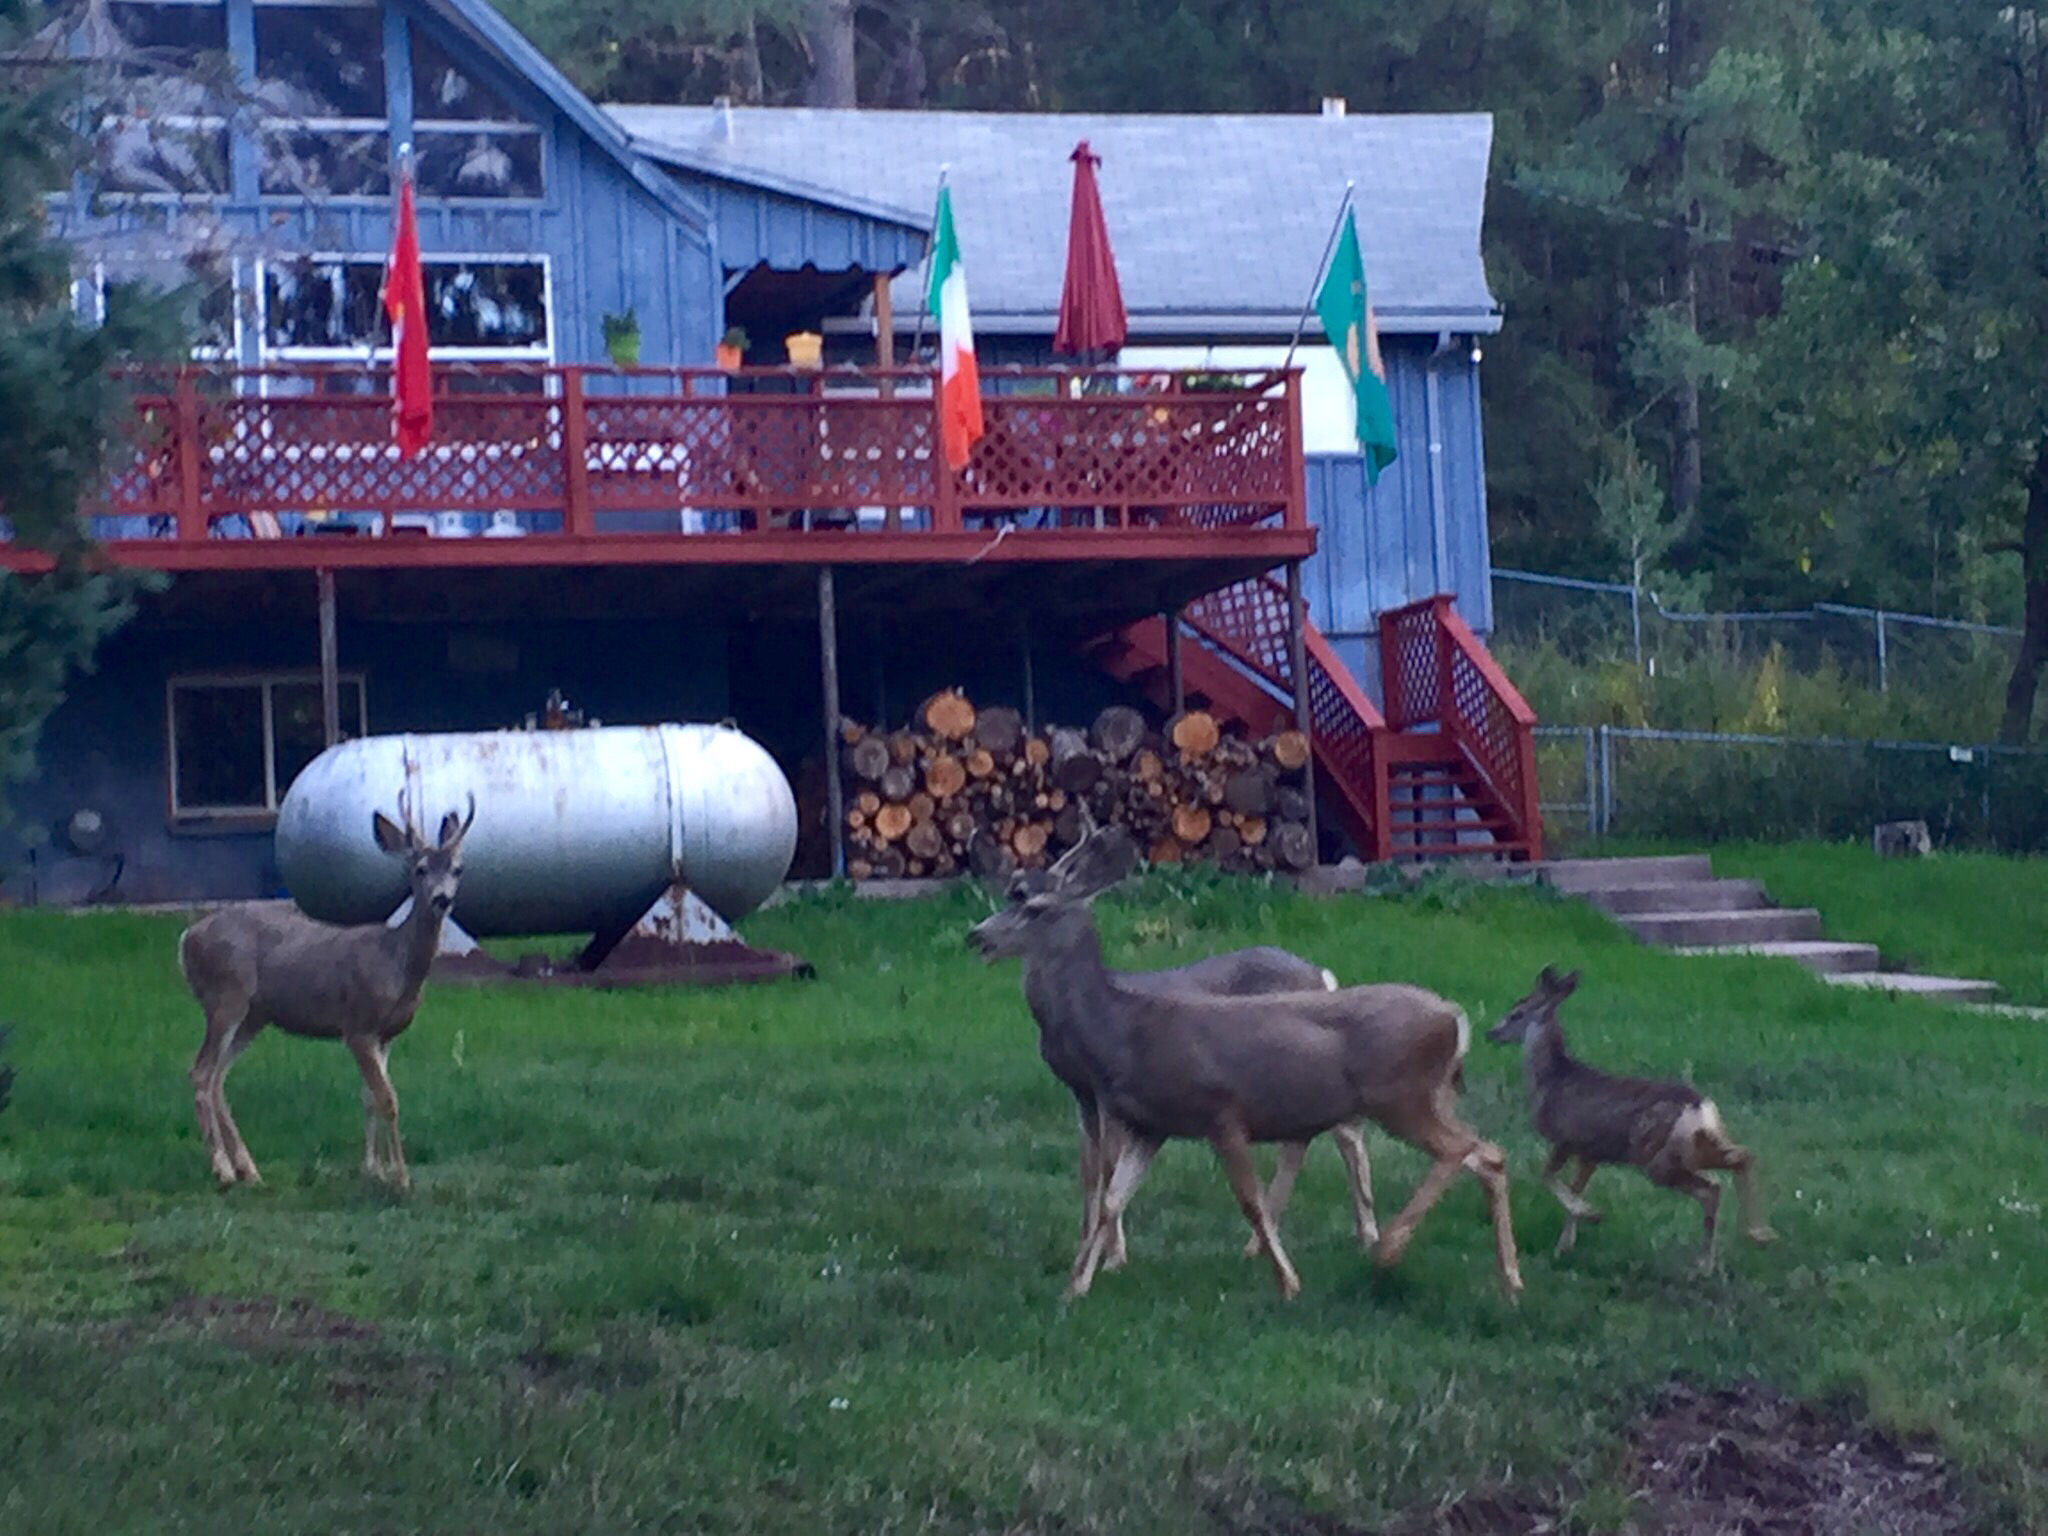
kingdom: Animalia
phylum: Chordata
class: Mammalia
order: Artiodactyla
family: Cervidae
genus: Odocoileus
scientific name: Odocoileus hemionus
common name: Mule deer
